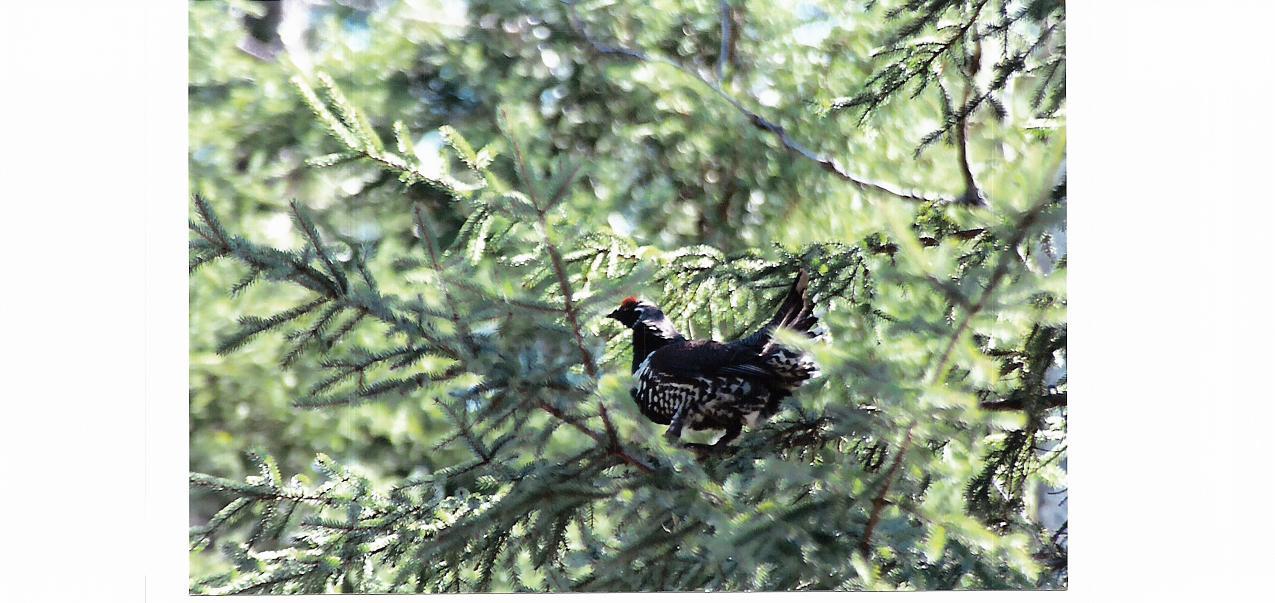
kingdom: Animalia
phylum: Chordata
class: Aves
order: Galliformes
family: Phasianidae
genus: Canachites
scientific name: Canachites canadensis
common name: Spruce grouse
